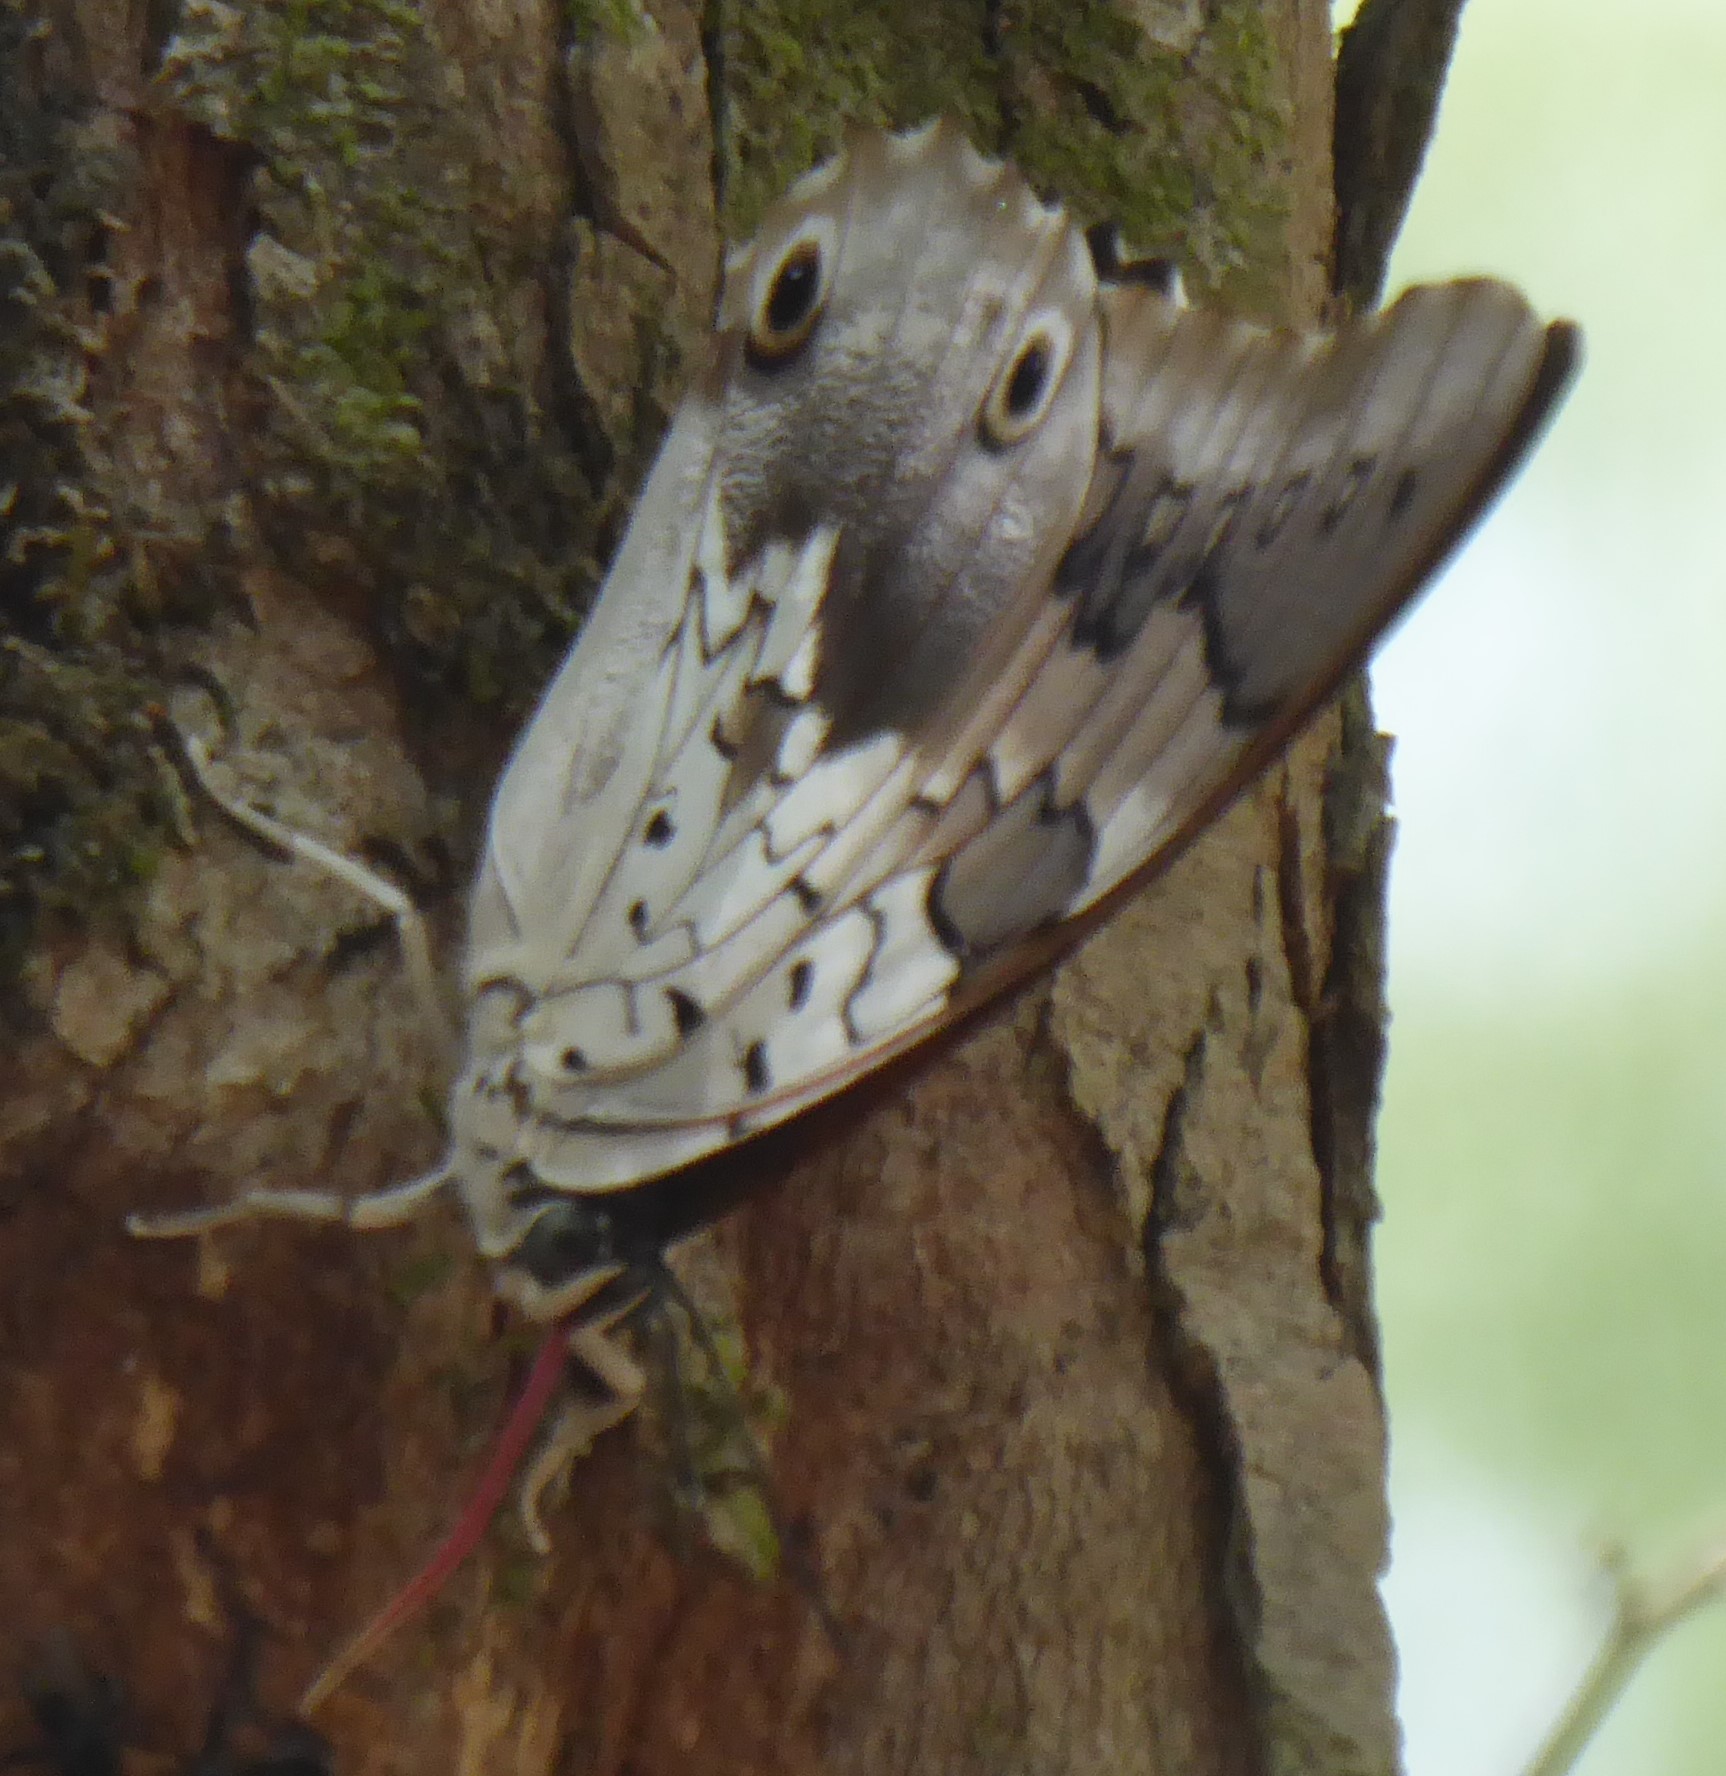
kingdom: Animalia
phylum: Arthropoda
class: Insecta
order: Lepidoptera
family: Nymphalidae
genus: Prepona
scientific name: Prepona laertes
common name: Butterfly
